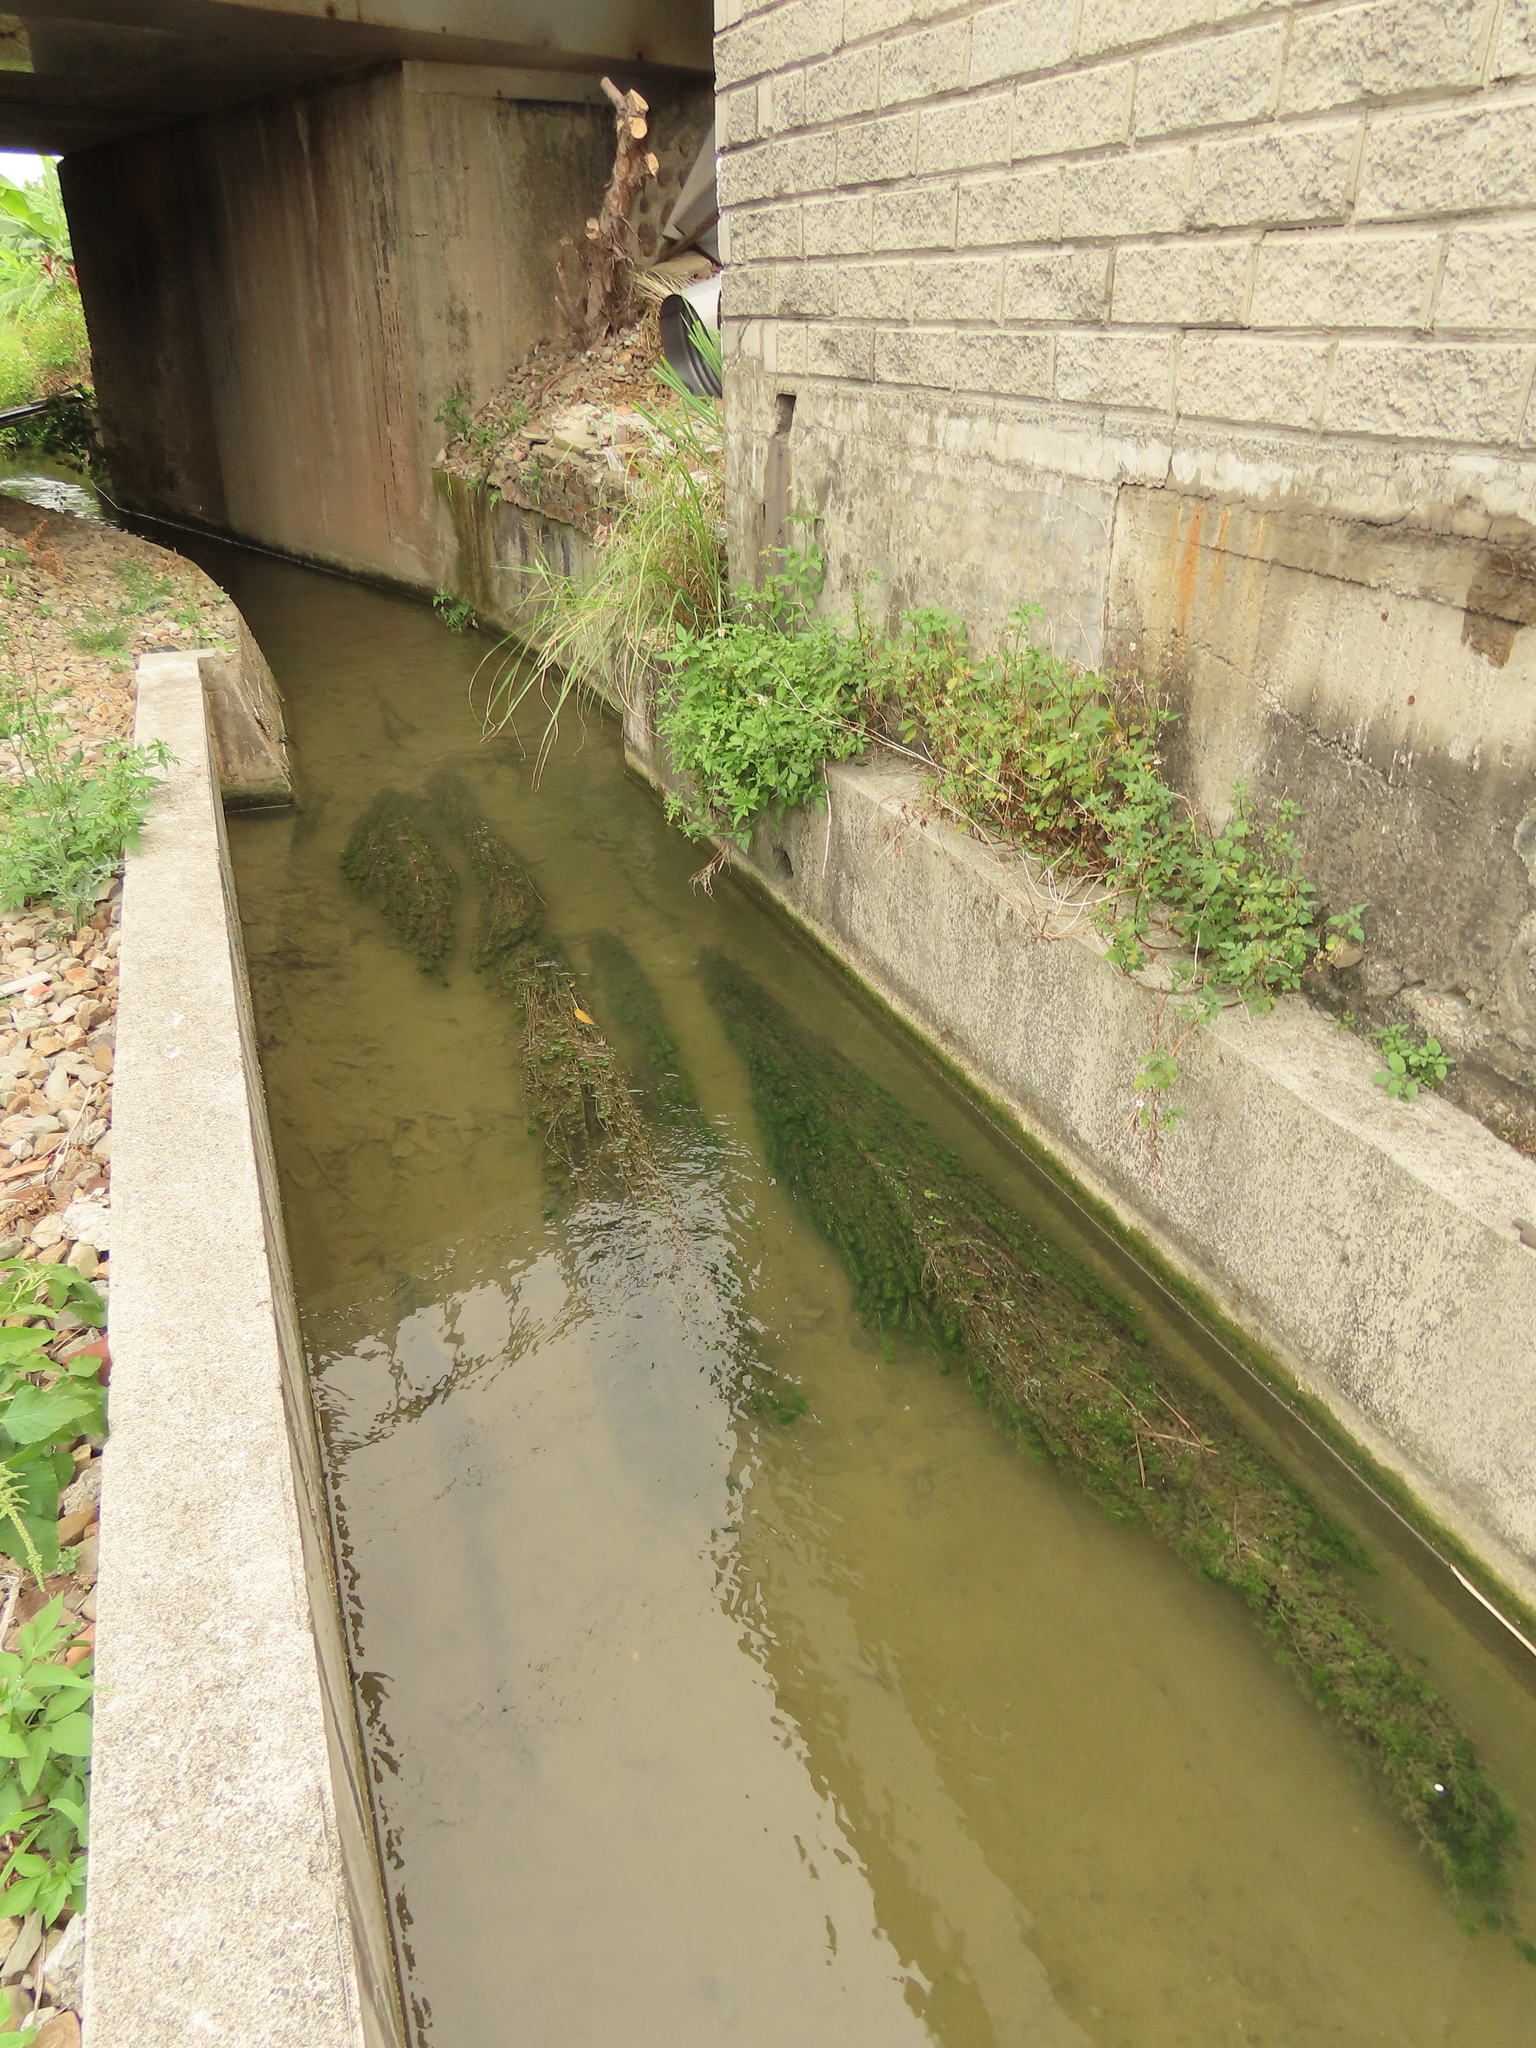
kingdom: Plantae
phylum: Tracheophyta
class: Magnoliopsida
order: Saxifragales
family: Haloragaceae
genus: Myriophyllum
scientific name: Myriophyllum spicatum
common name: Spiked water-milfoil
